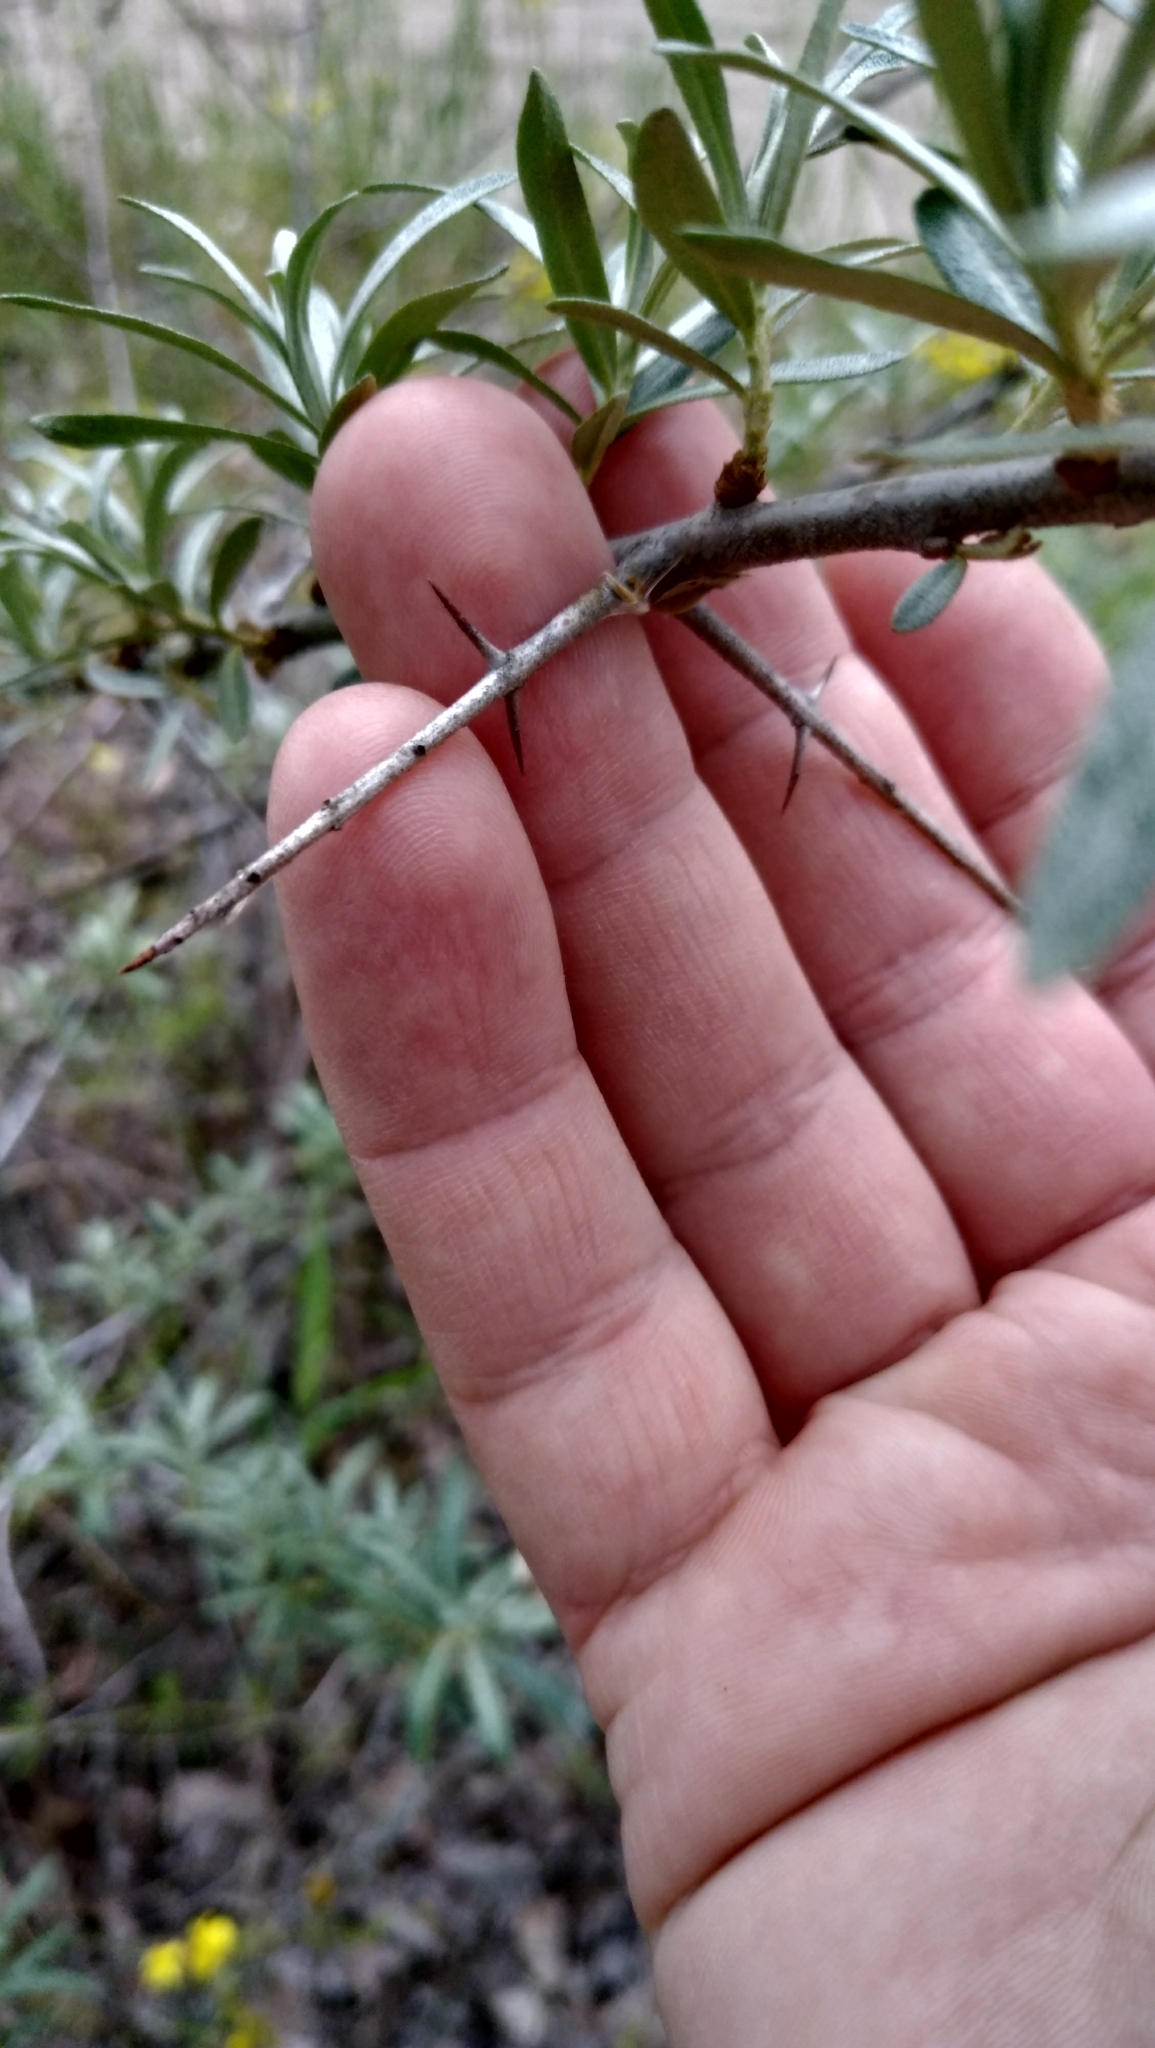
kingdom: Plantae
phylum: Tracheophyta
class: Magnoliopsida
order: Rosales
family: Elaeagnaceae
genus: Hippophae
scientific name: Hippophae rhamnoides
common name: Sea-buckthorn
